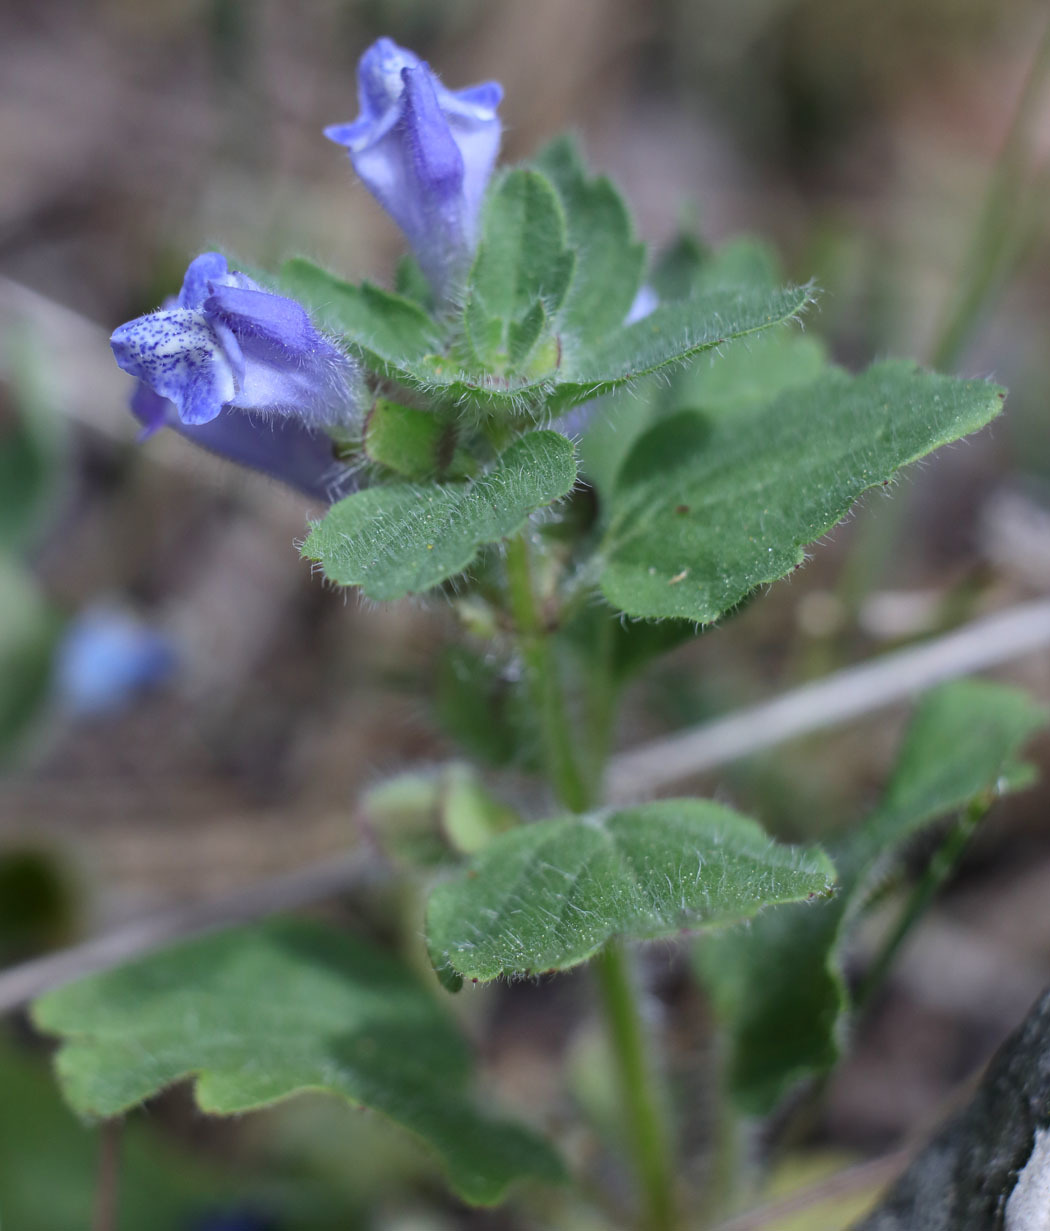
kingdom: Plantae
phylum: Tracheophyta
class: Magnoliopsida
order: Lamiales
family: Lamiaceae
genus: Scutellaria
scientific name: Scutellaria tuberosa
